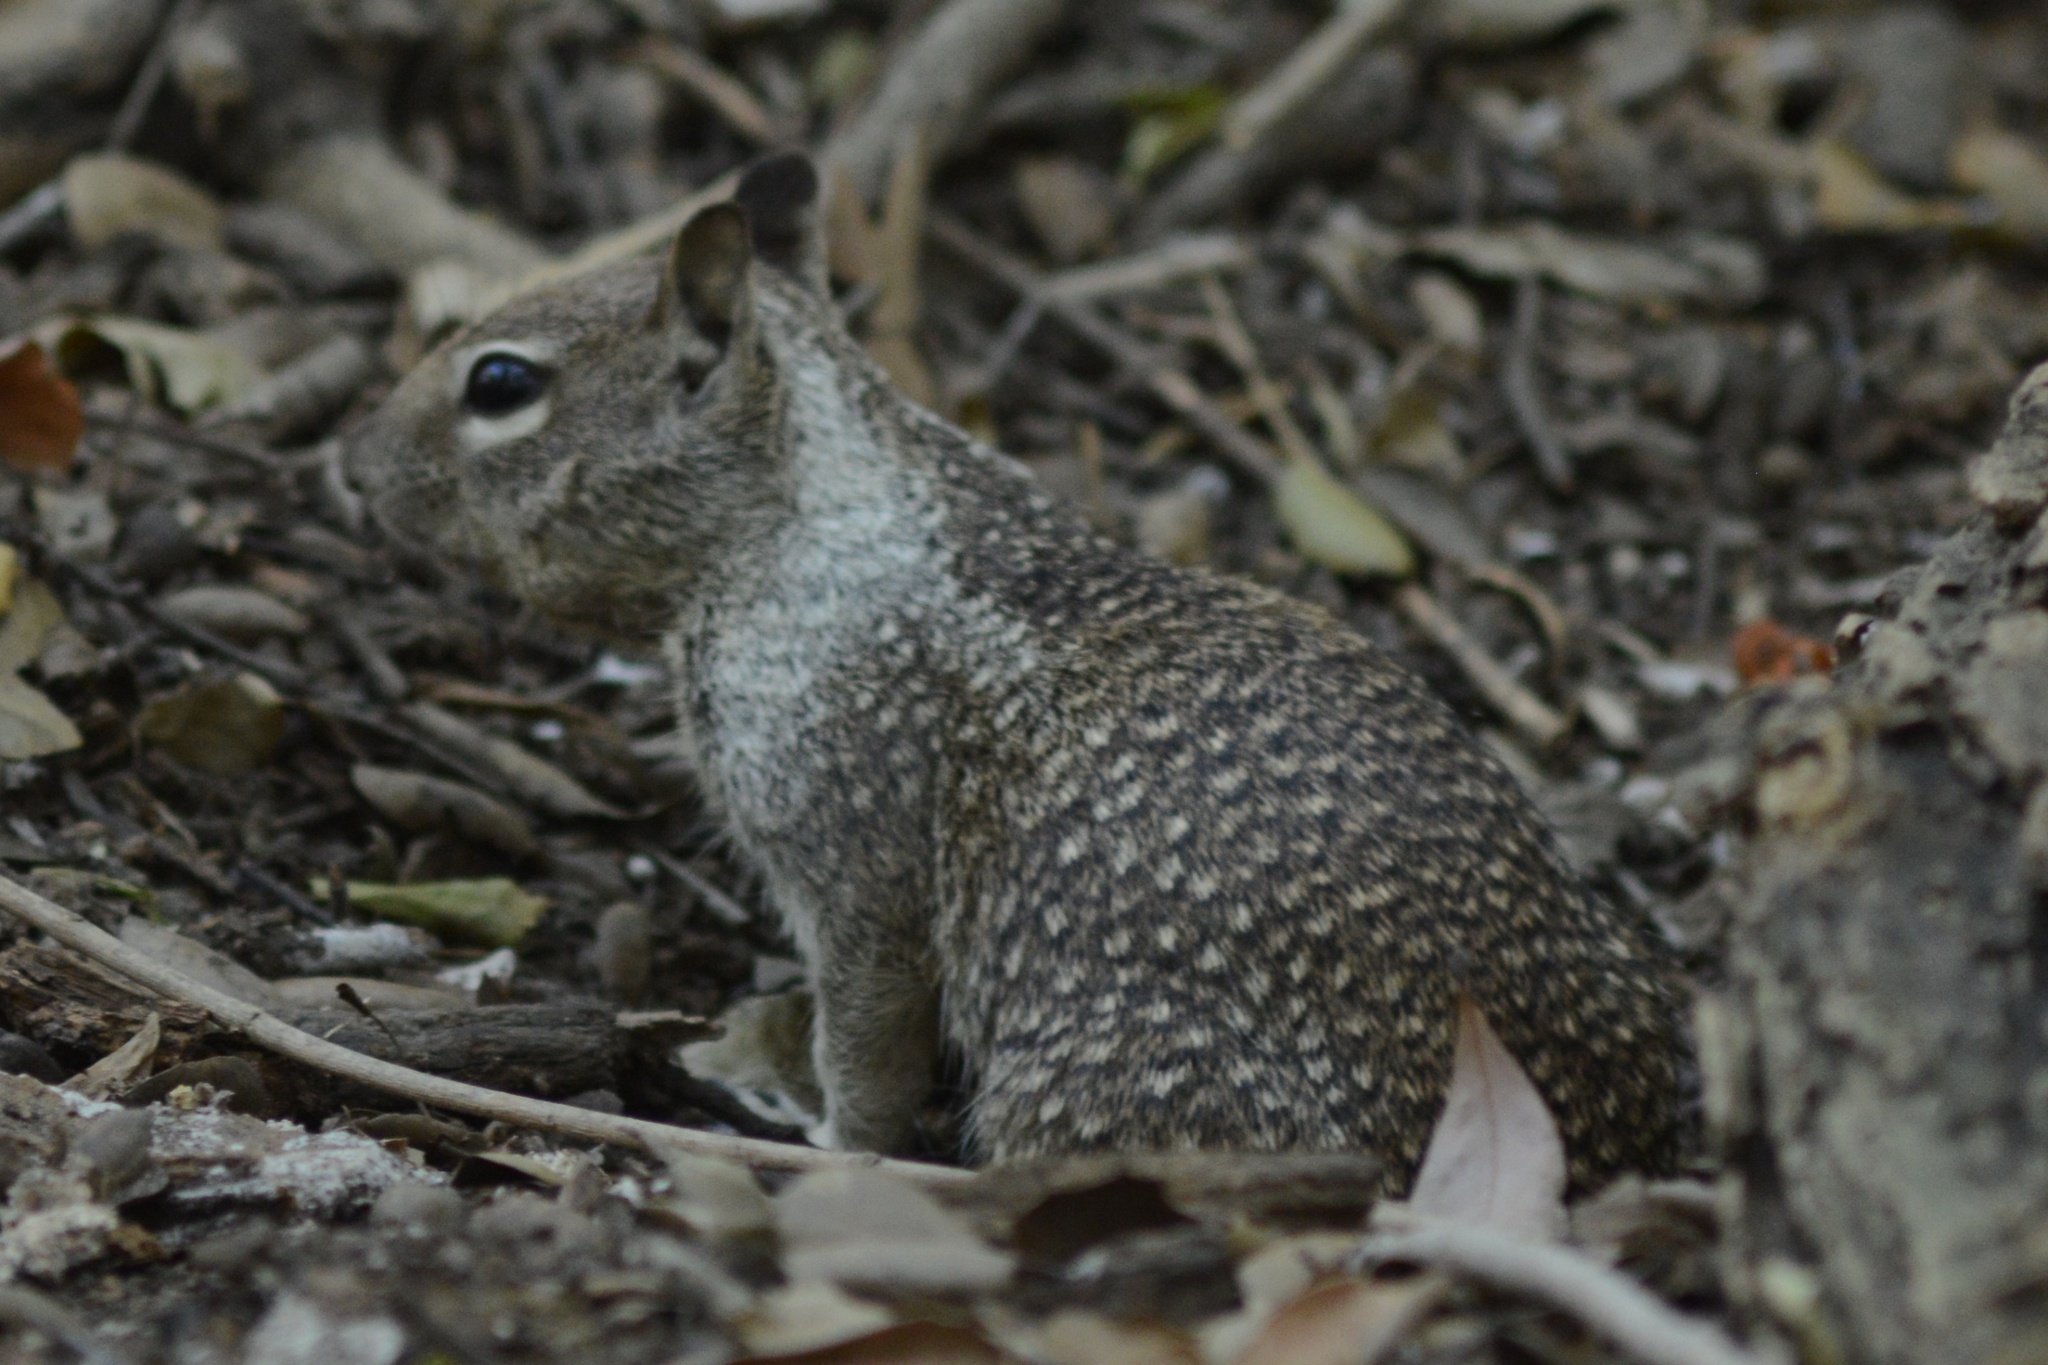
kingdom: Animalia
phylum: Chordata
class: Mammalia
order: Rodentia
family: Sciuridae
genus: Otospermophilus
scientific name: Otospermophilus beecheyi
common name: California ground squirrel
